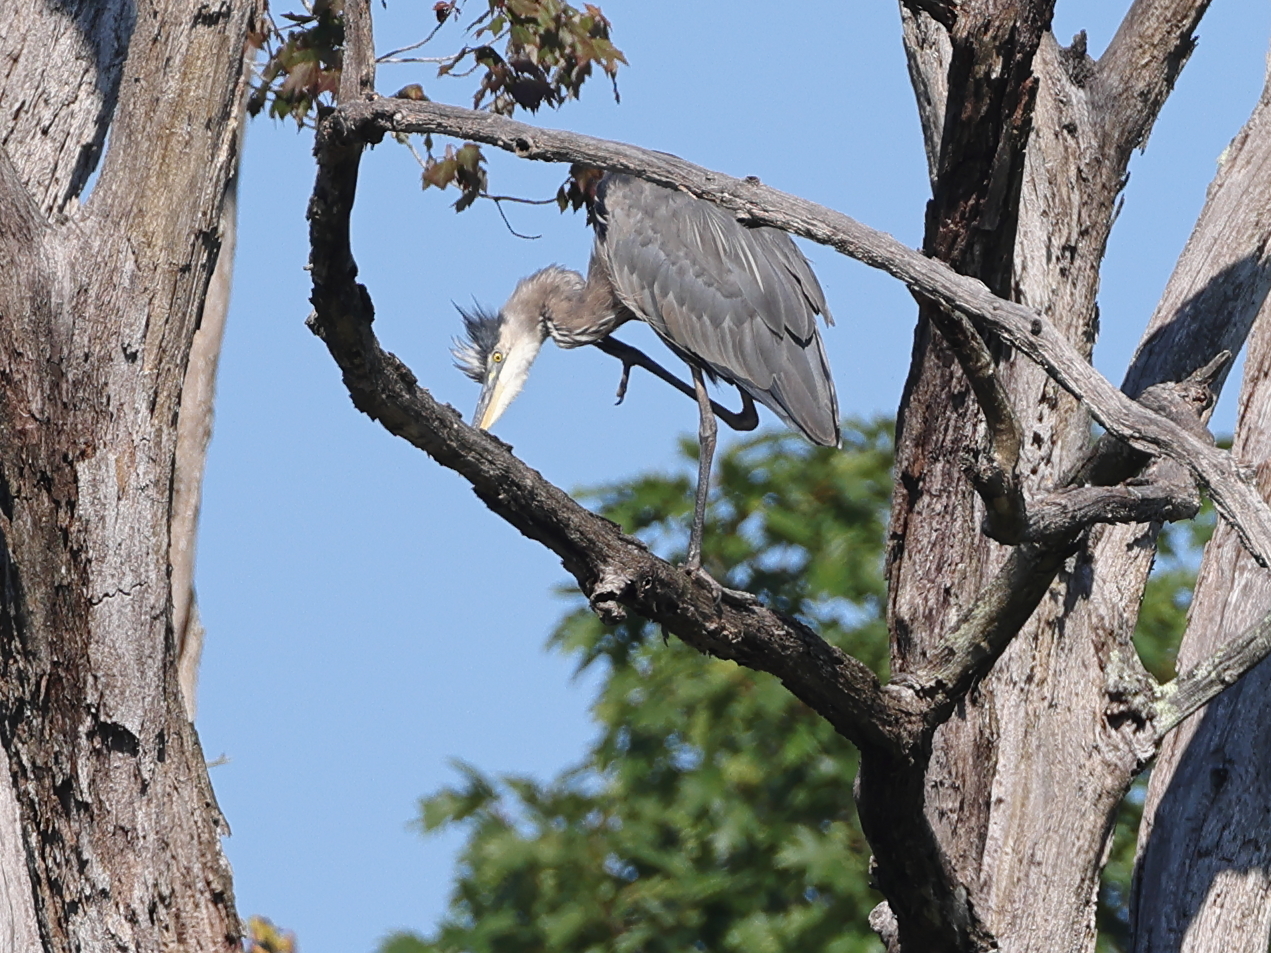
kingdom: Animalia
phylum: Chordata
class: Aves
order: Pelecaniformes
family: Ardeidae
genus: Ardea
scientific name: Ardea herodias
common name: Great blue heron
